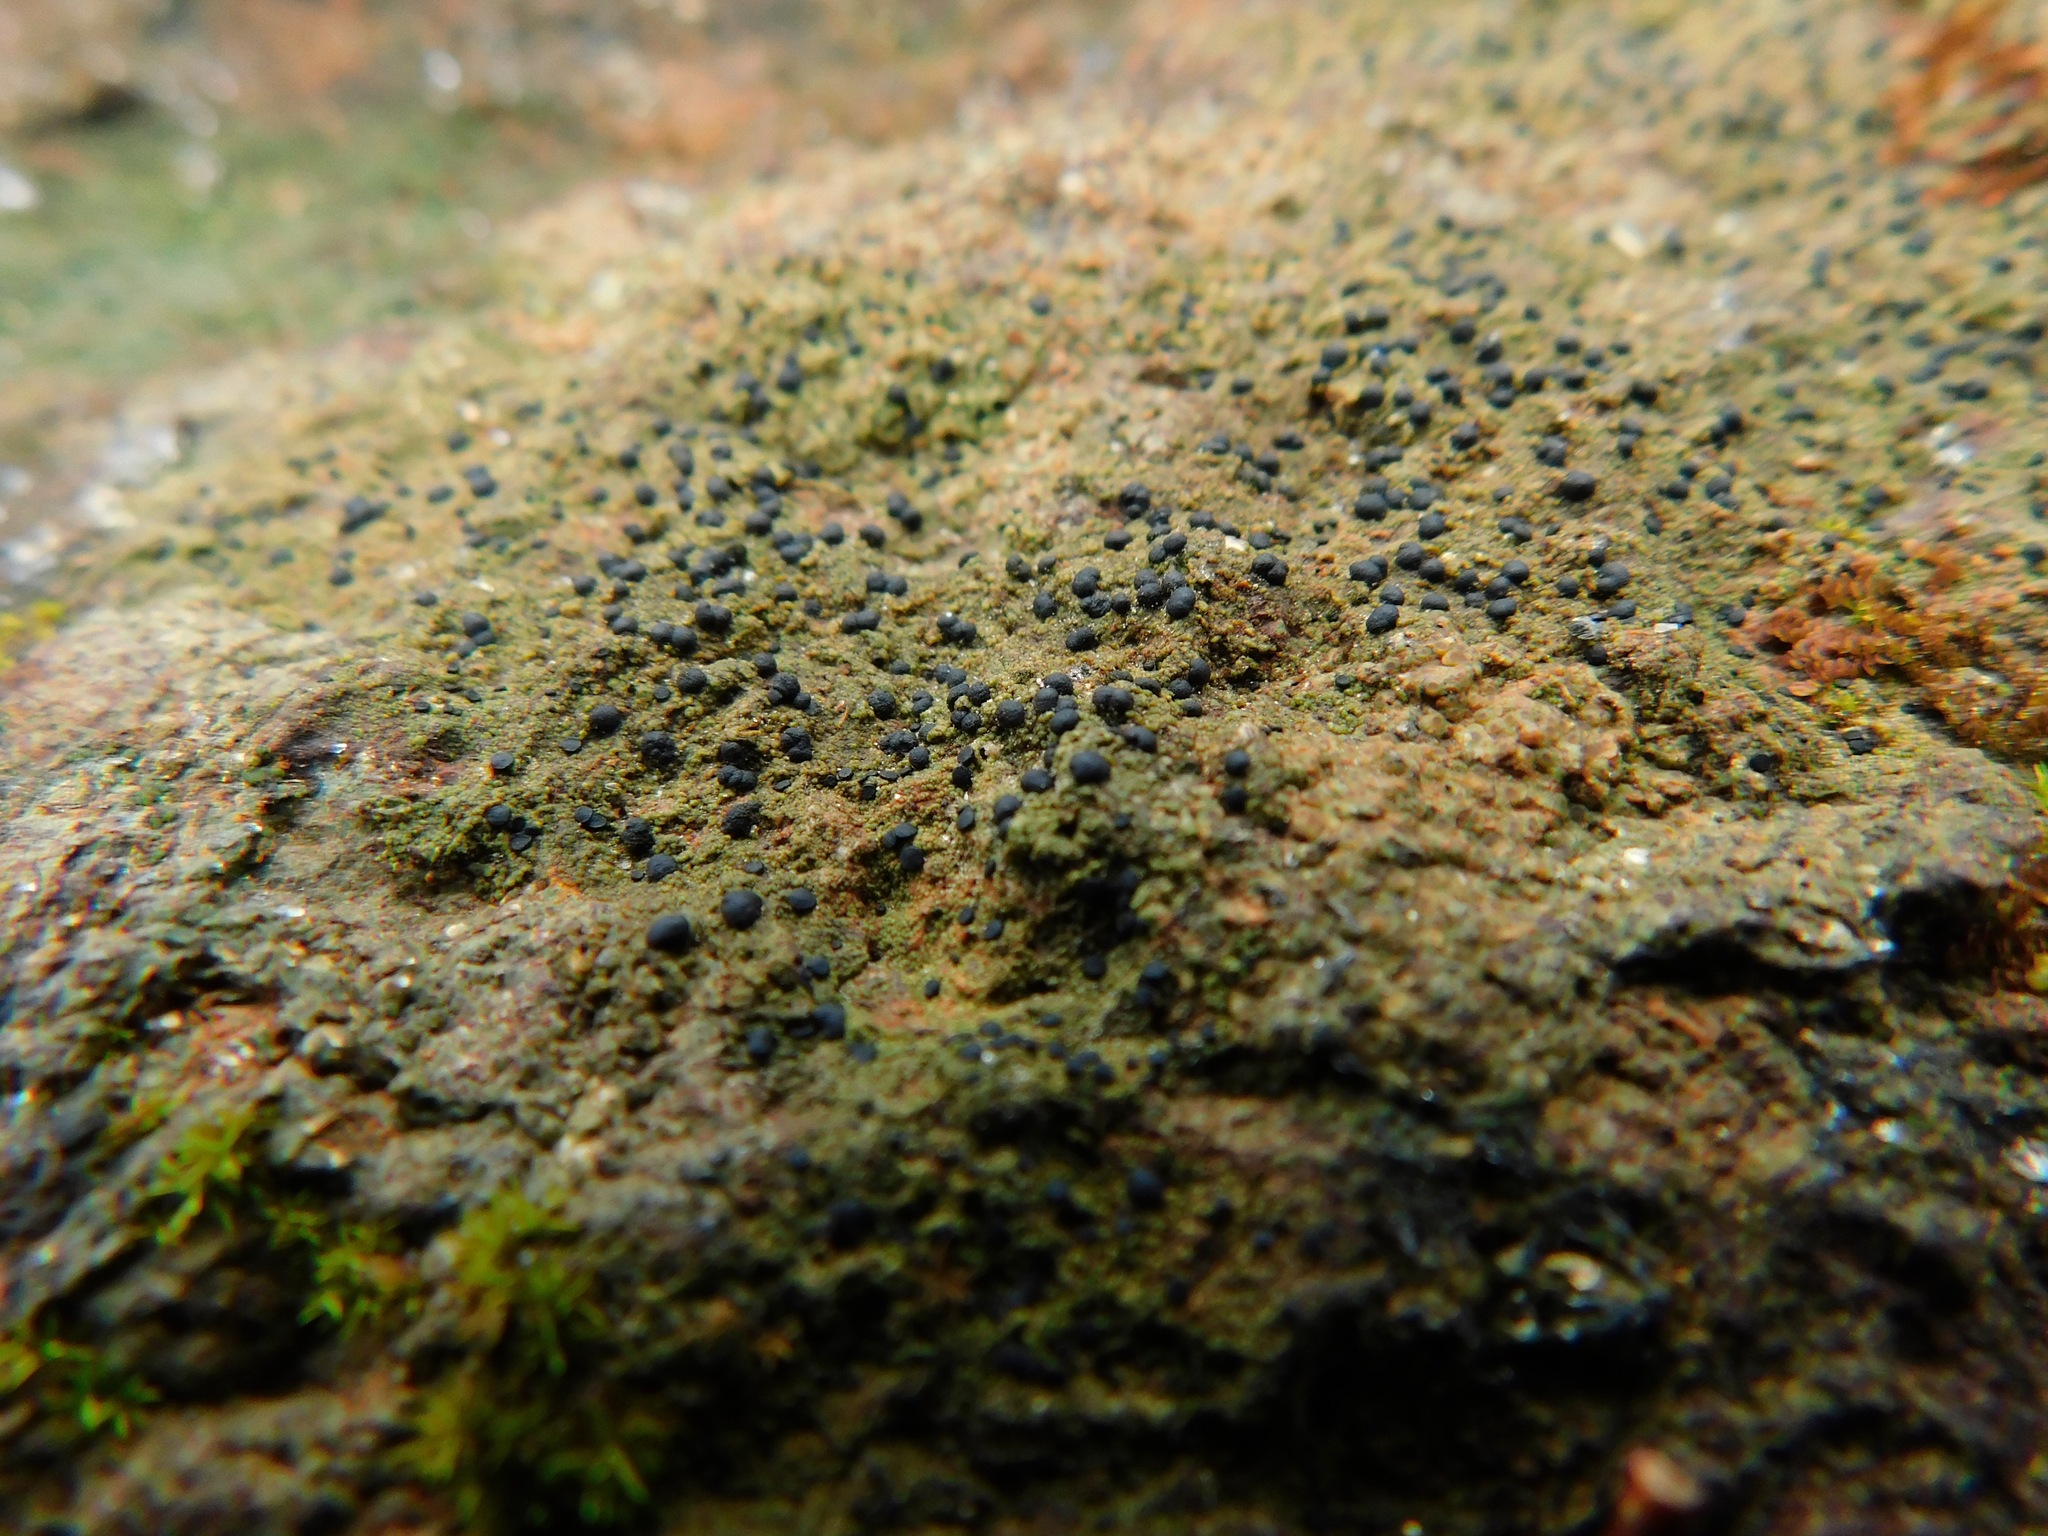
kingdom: Fungi
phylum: Ascomycota
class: Lecanoromycetes
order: Caliciales
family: Caliciaceae
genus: Buellia
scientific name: Buellia vernicoma
